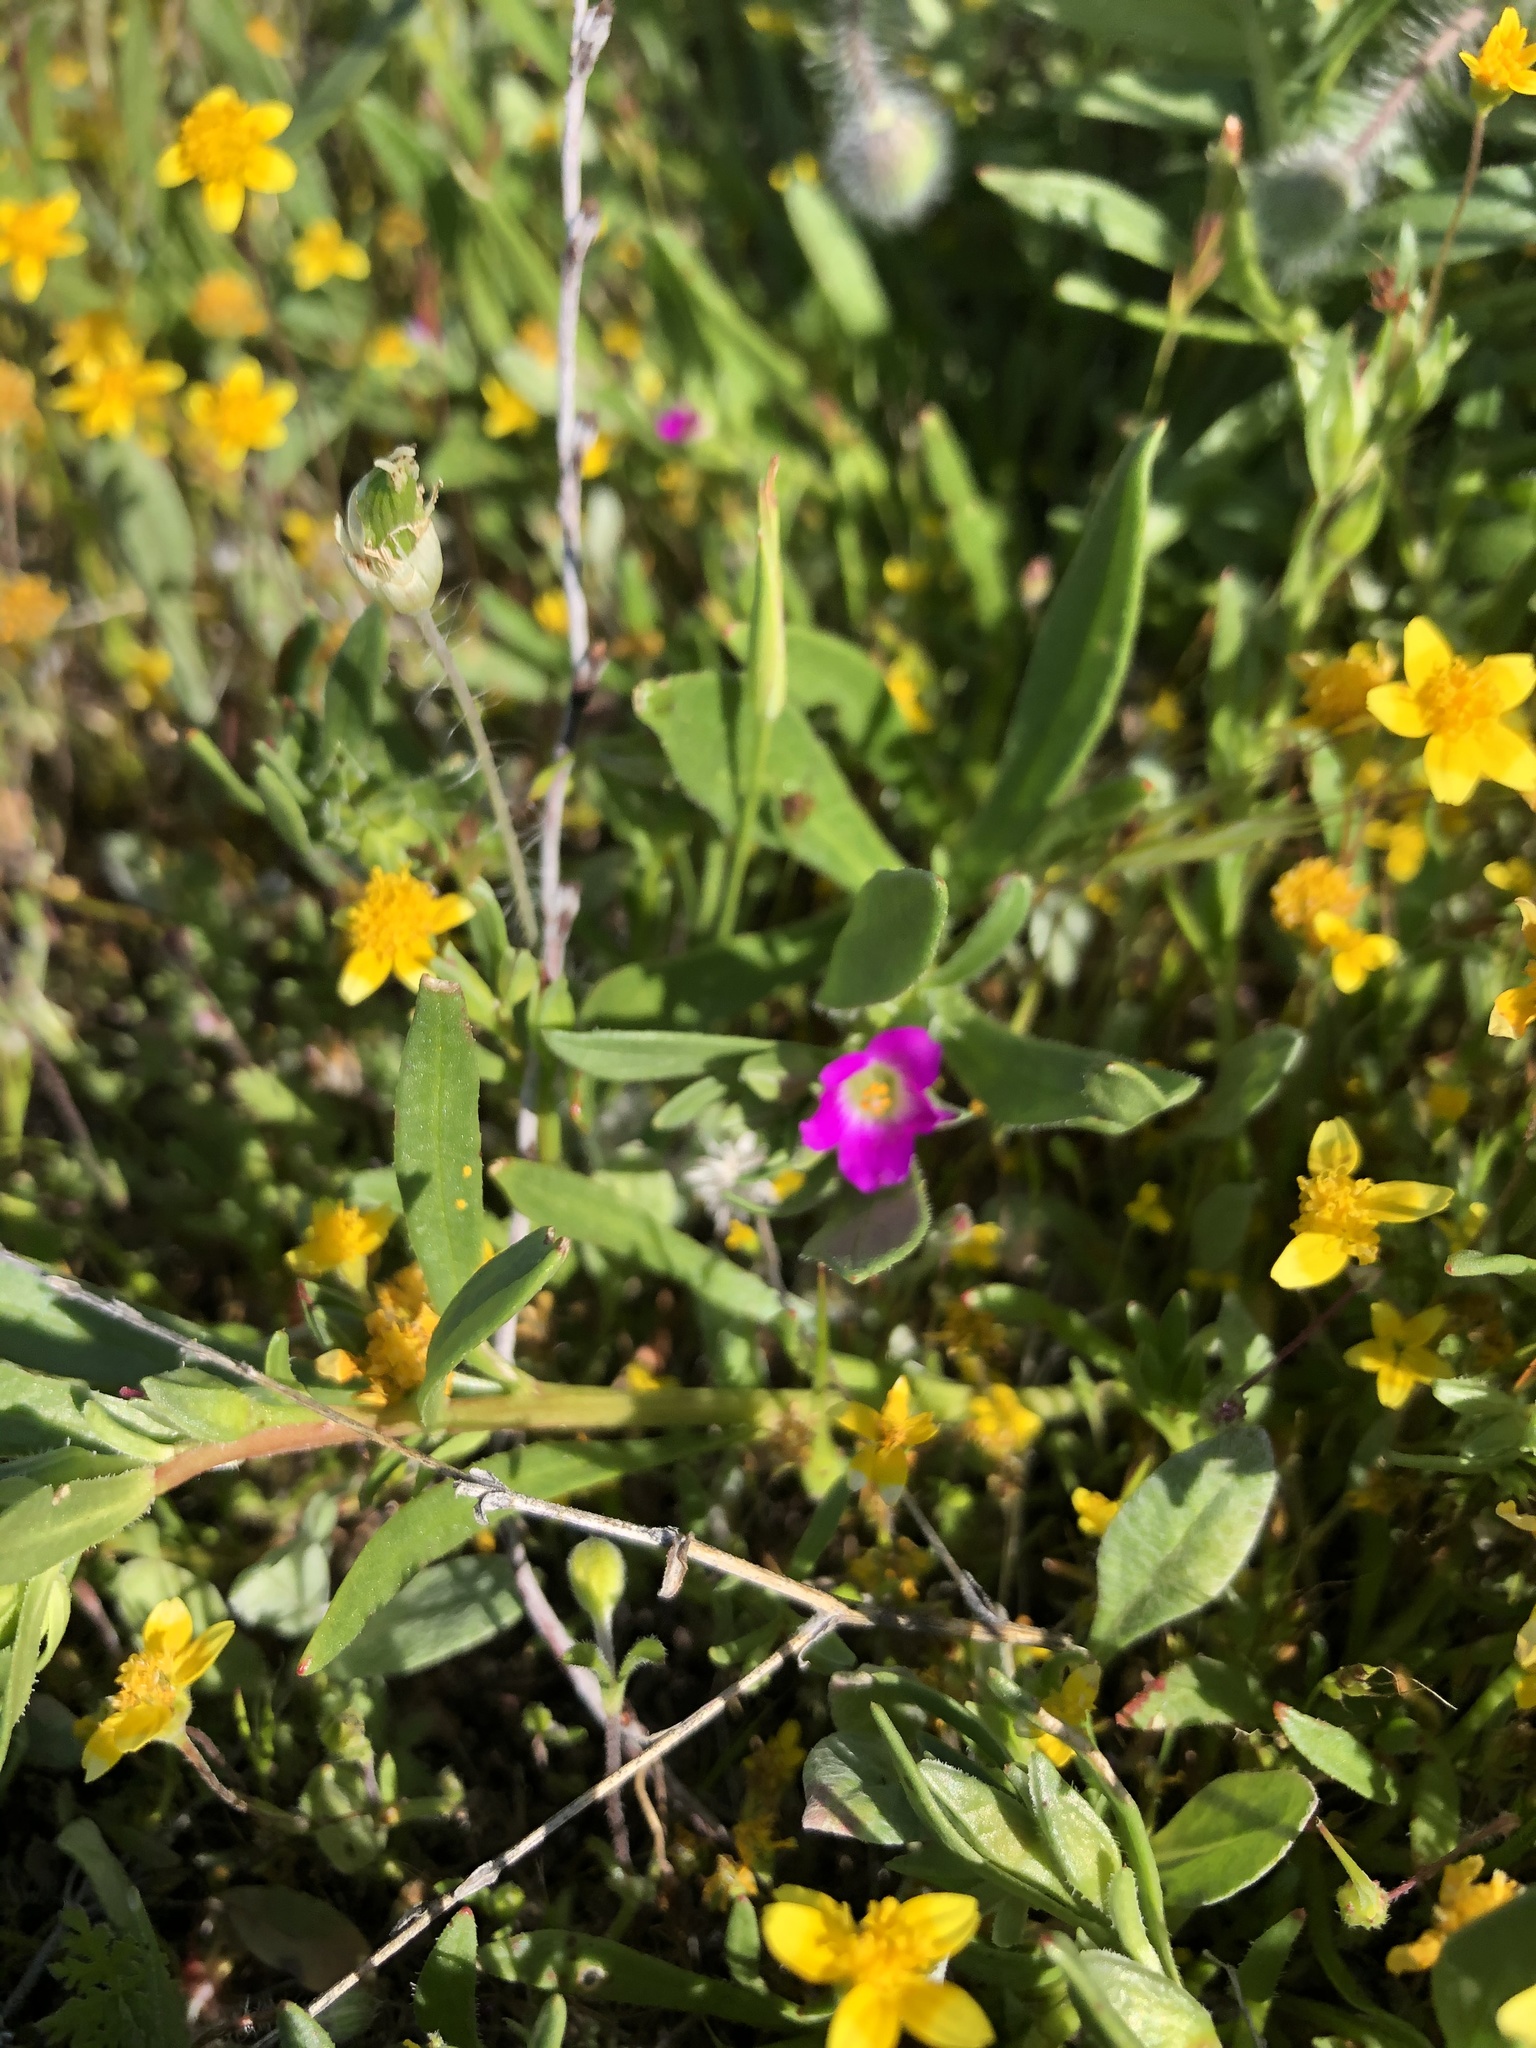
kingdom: Plantae
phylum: Tracheophyta
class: Magnoliopsida
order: Caryophyllales
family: Montiaceae
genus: Calandrinia
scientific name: Calandrinia menziesii
